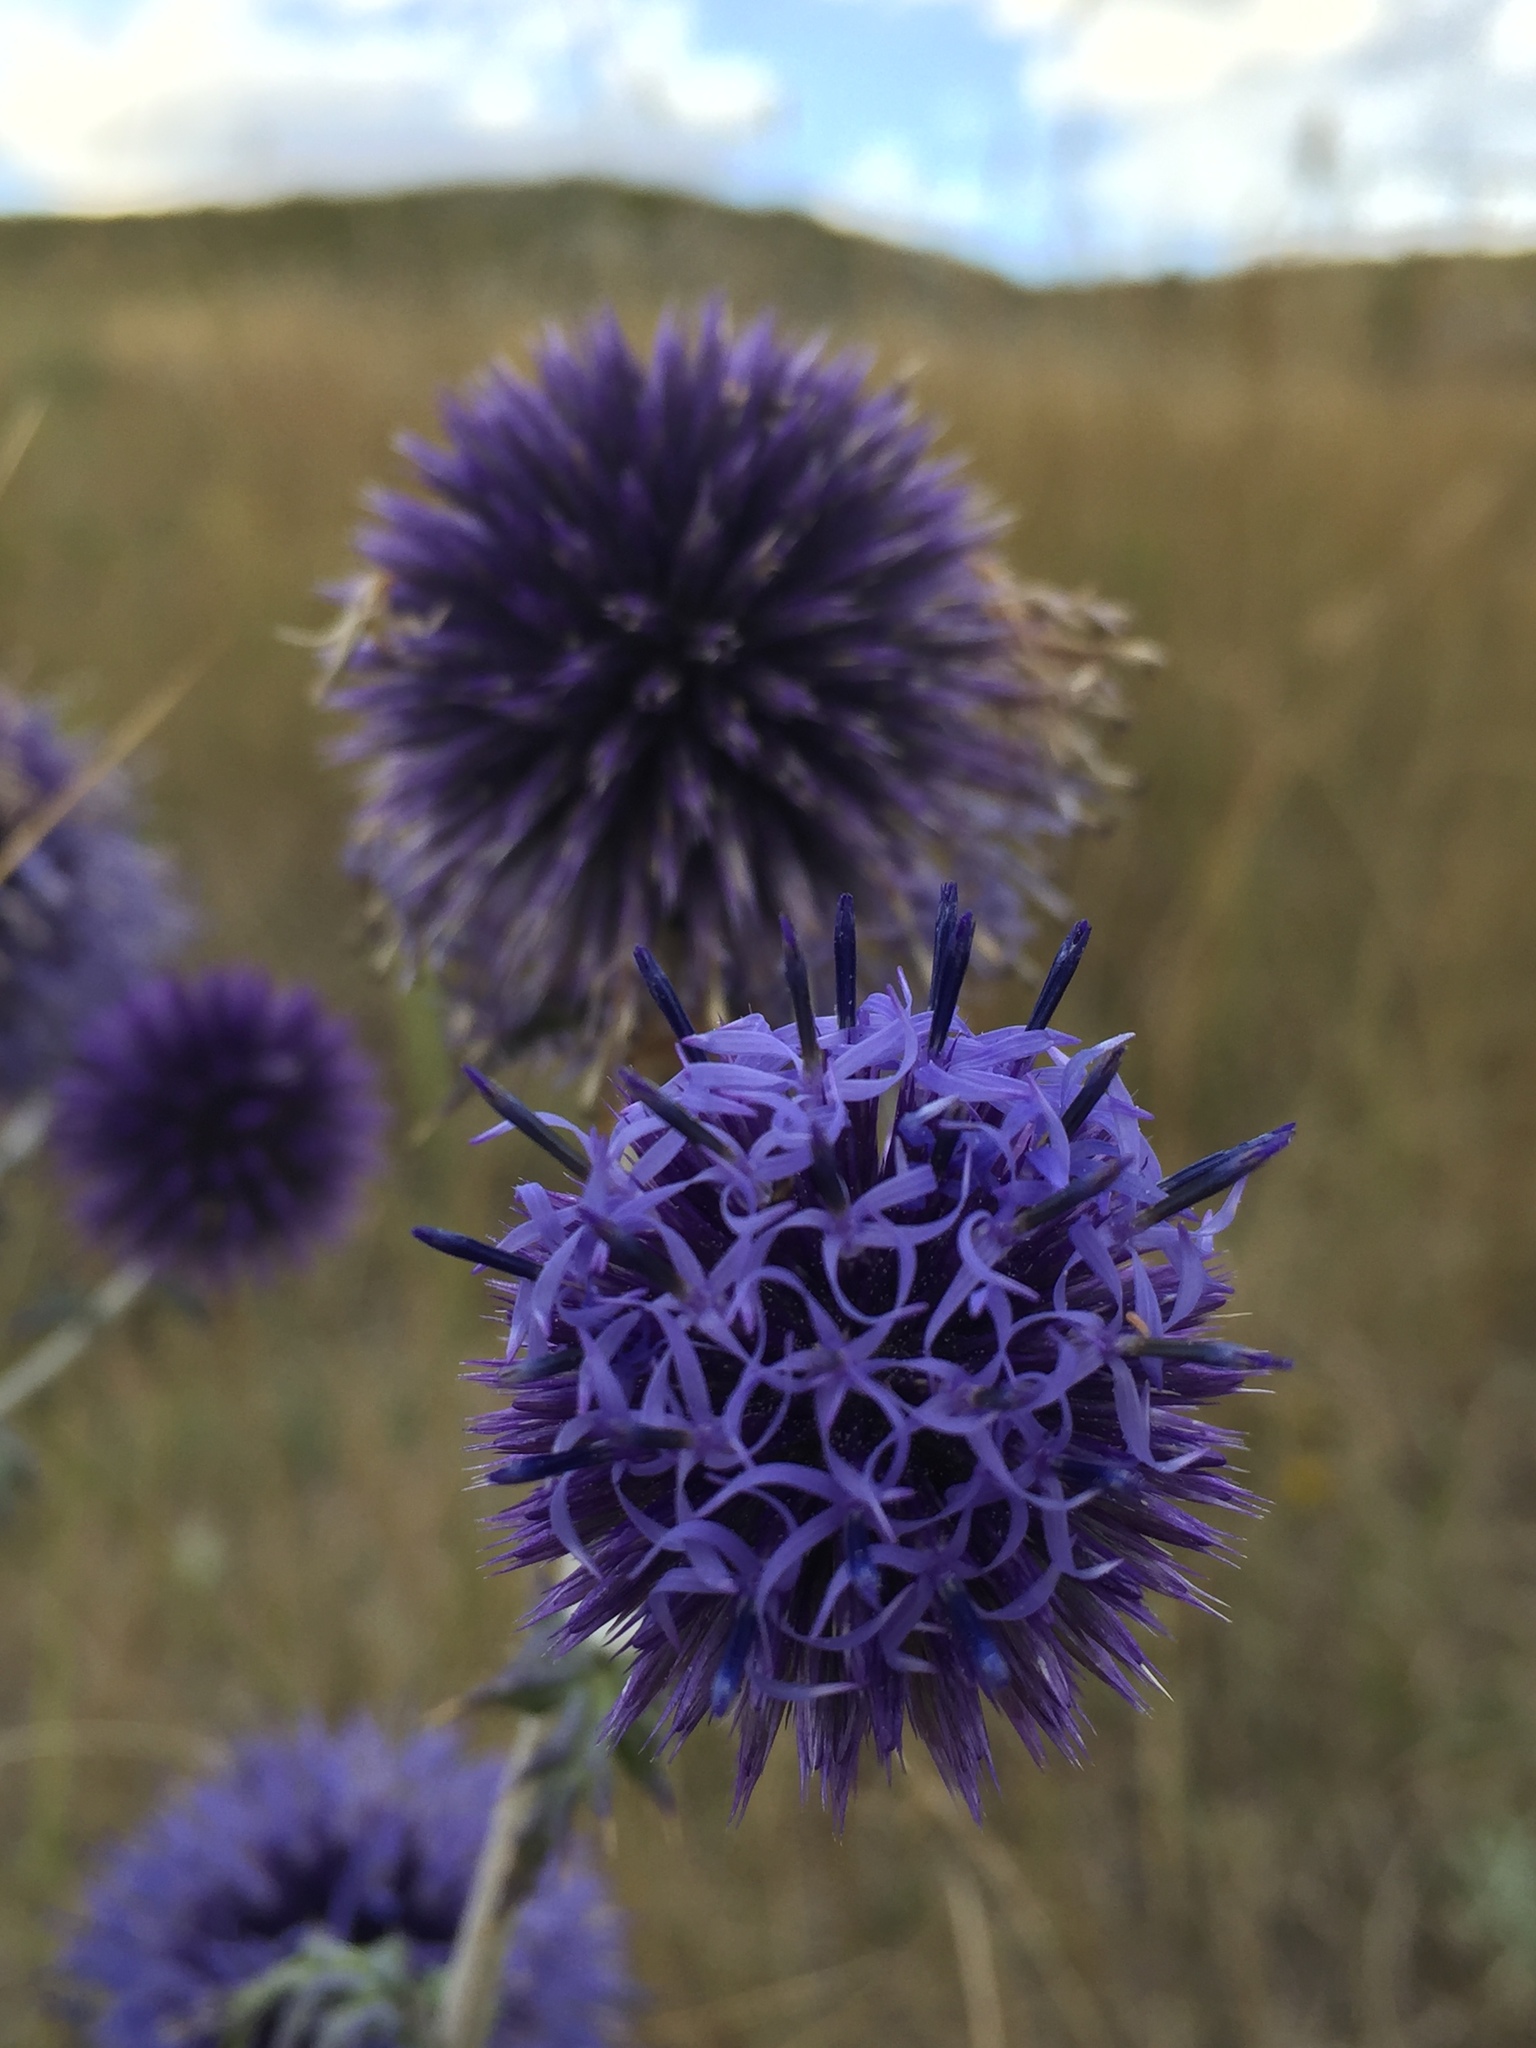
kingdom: Plantae
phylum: Tracheophyta
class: Magnoliopsida
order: Asterales
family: Asteraceae
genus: Echinops
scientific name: Echinops ritro
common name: Globe thistle
